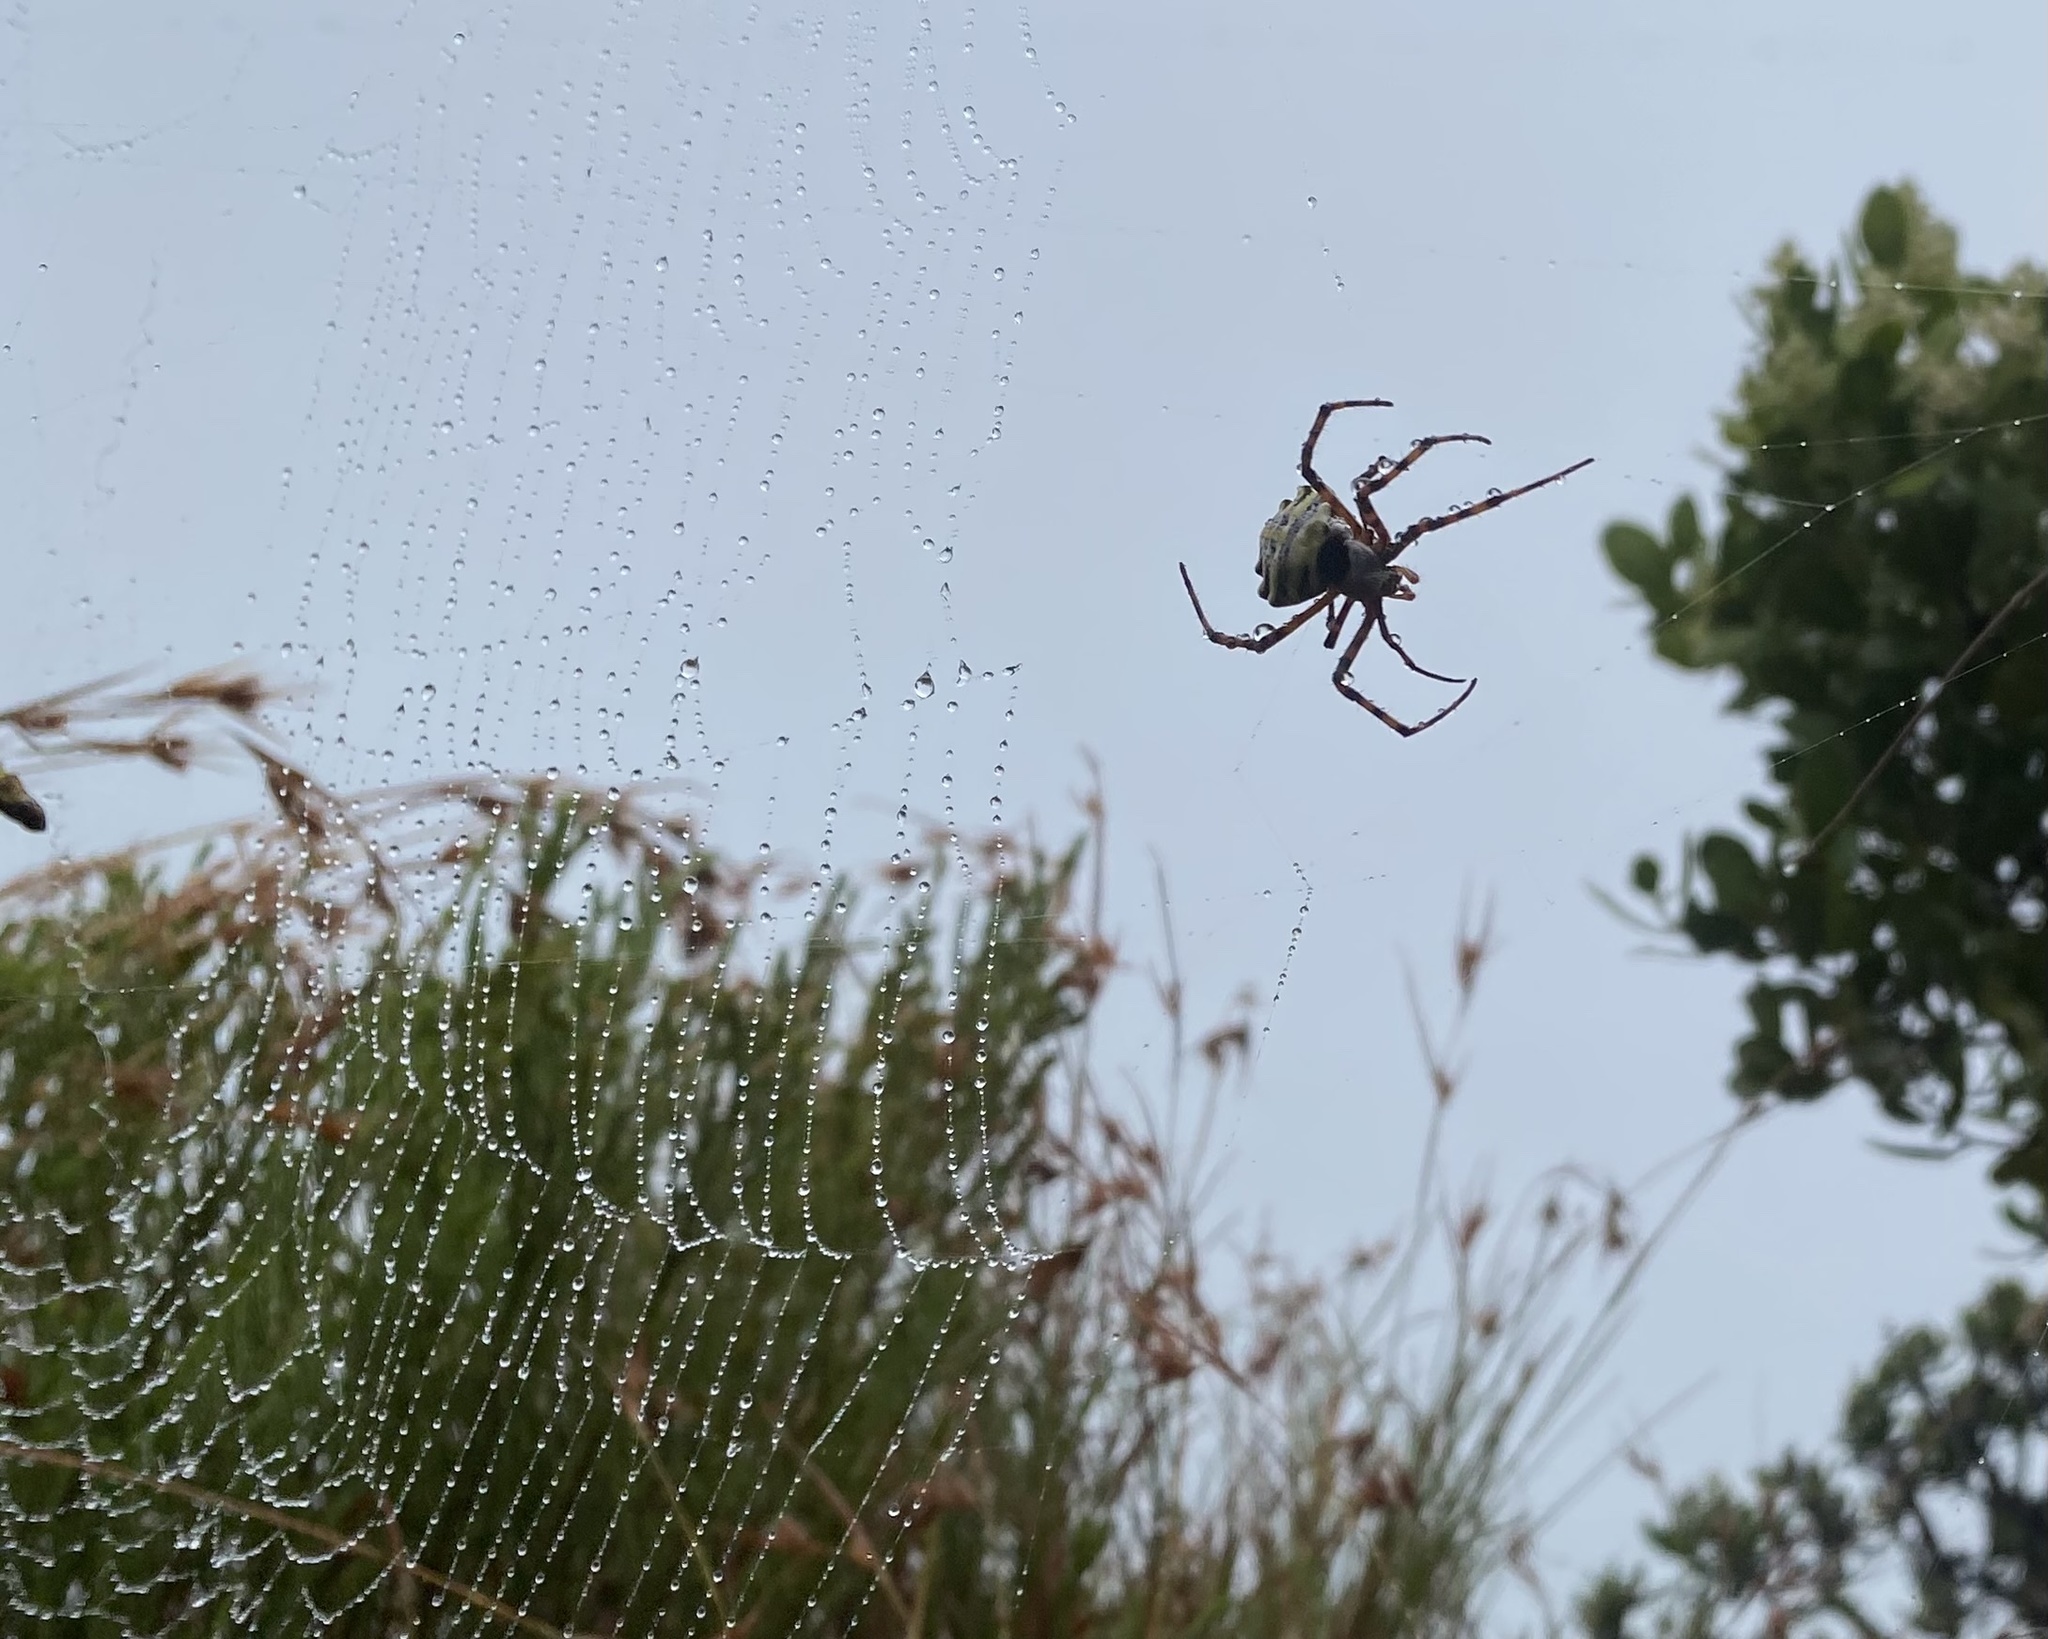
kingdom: Animalia
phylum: Arthropoda
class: Arachnida
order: Araneae
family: Araneidae
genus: Argiope
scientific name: Argiope australis
